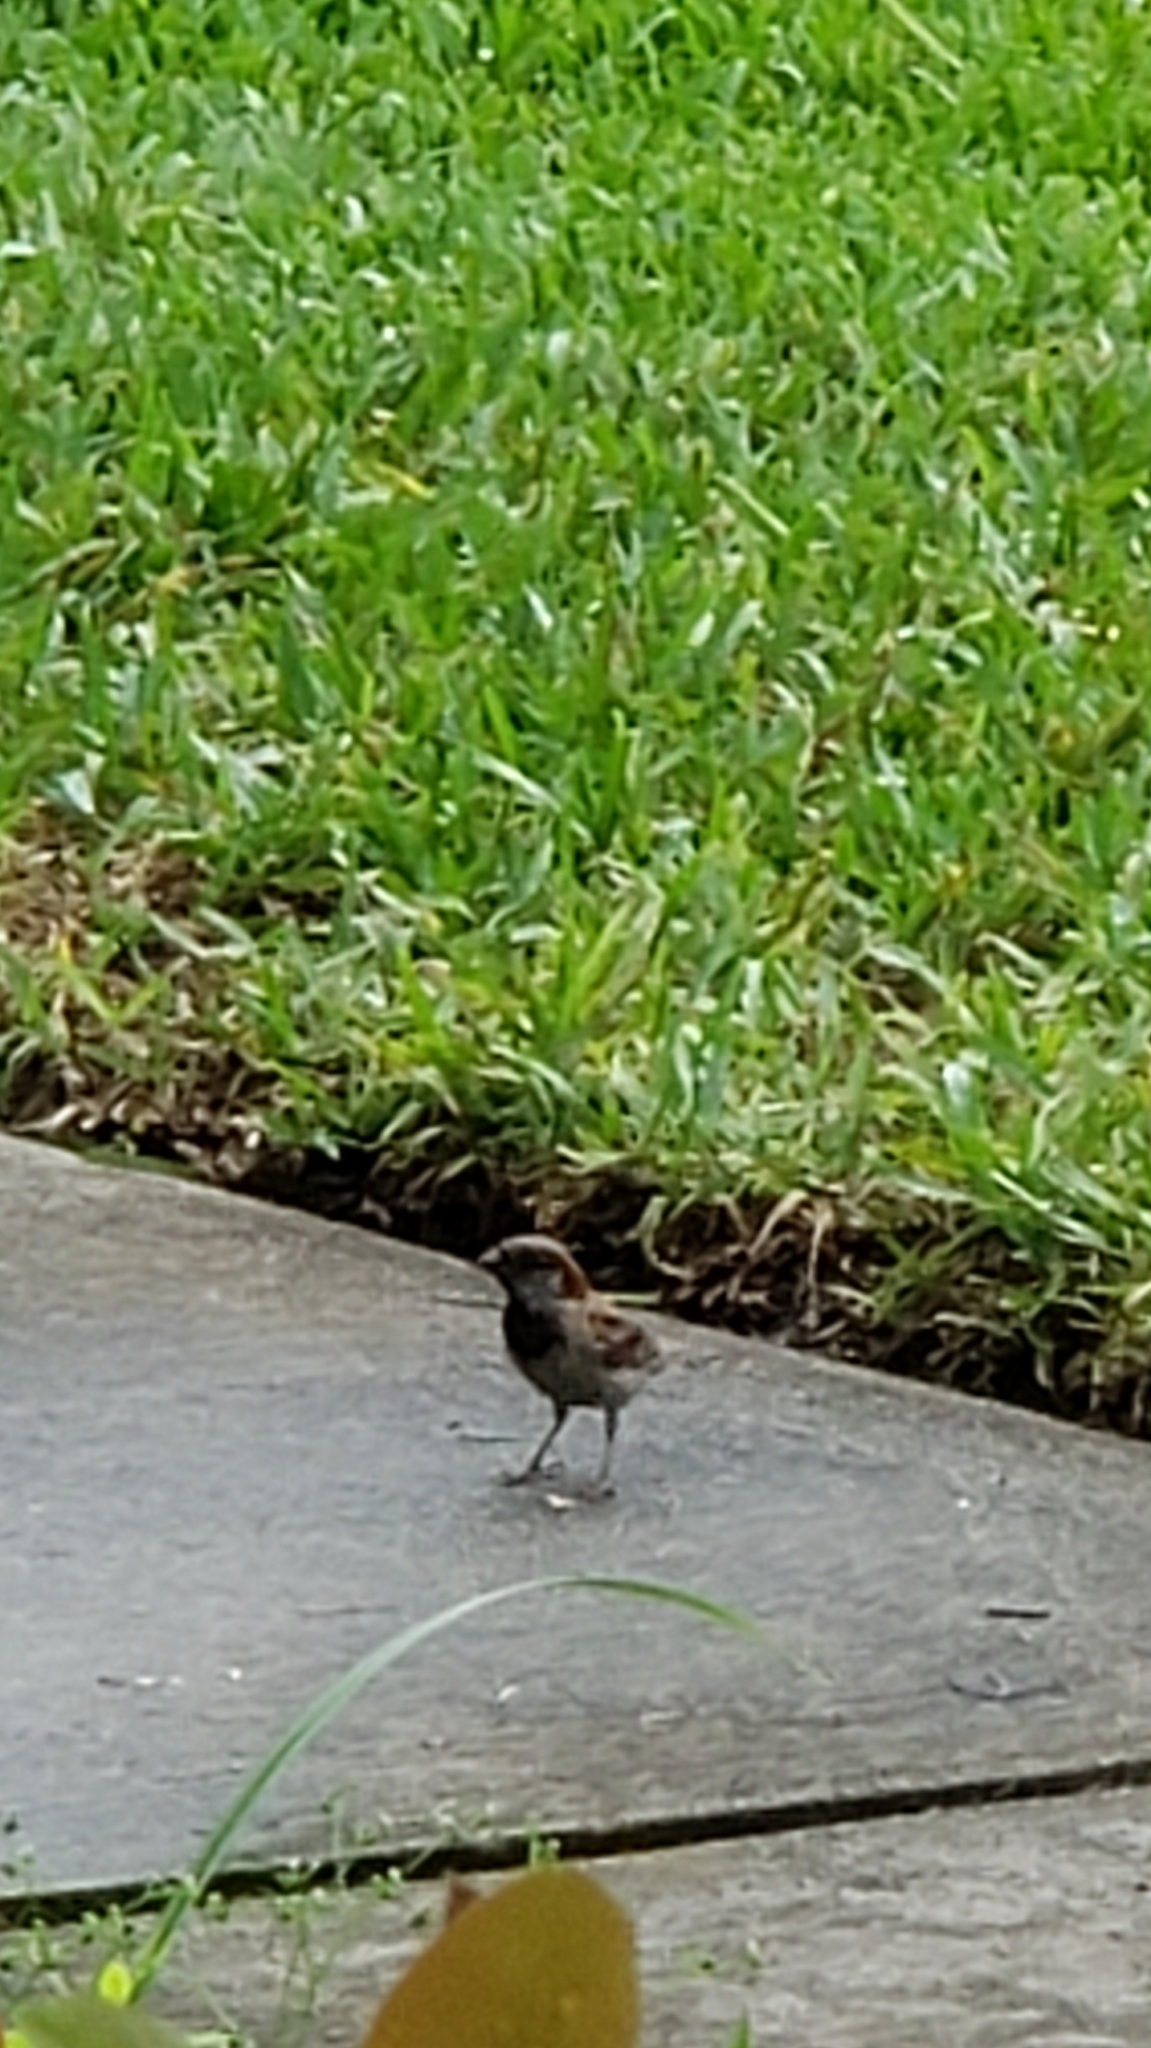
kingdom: Animalia
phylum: Chordata
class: Aves
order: Passeriformes
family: Passeridae
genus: Passer
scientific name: Passer domesticus
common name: House sparrow
